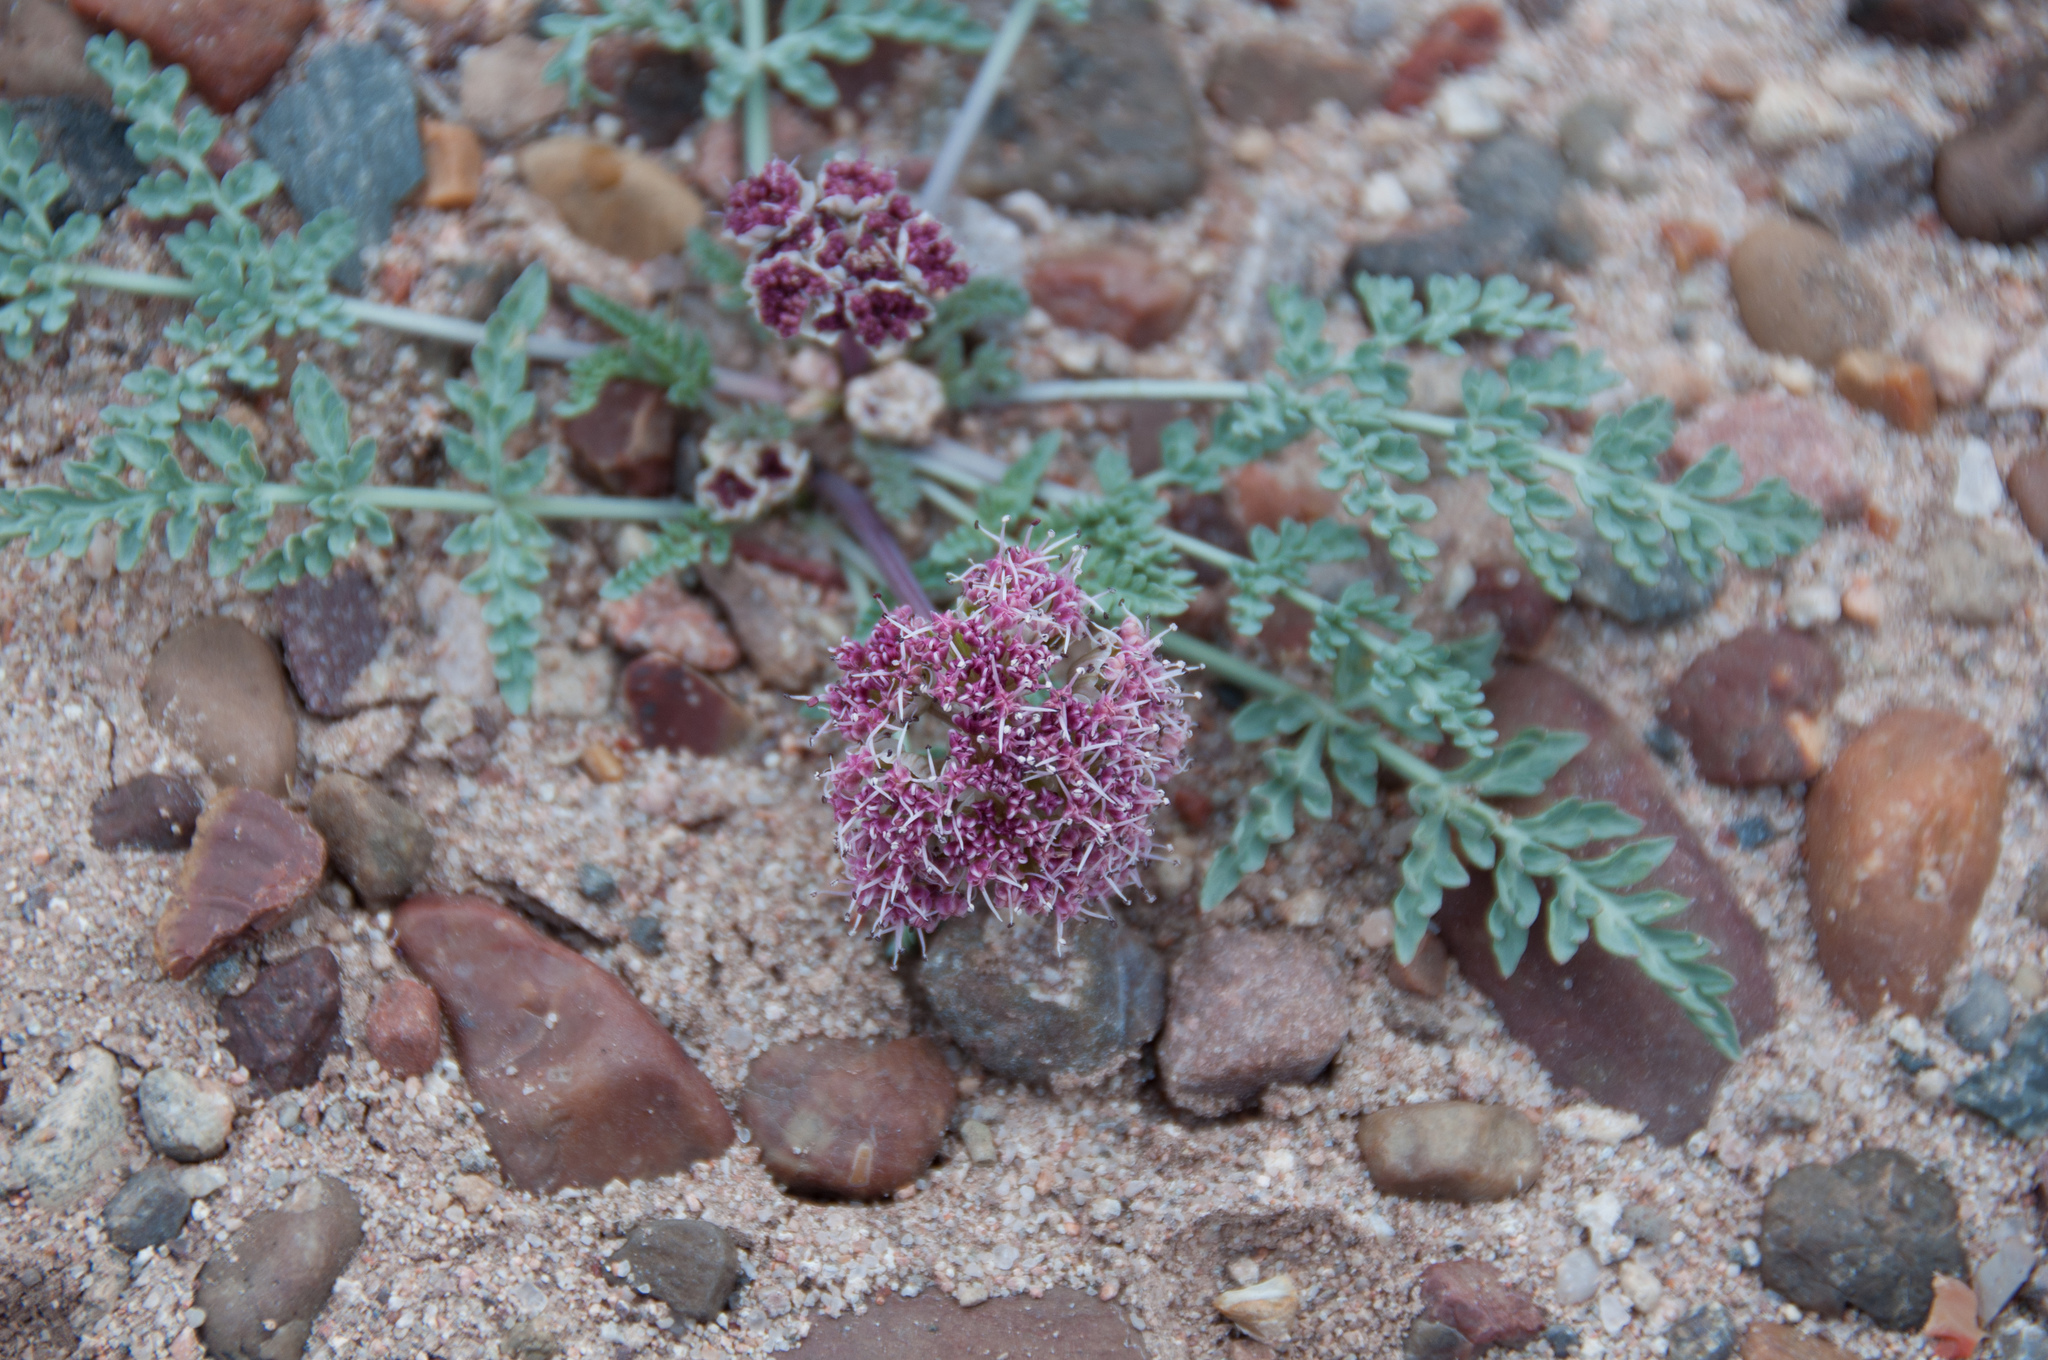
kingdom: Plantae
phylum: Tracheophyta
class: Magnoliopsida
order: Apiales
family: Apiaceae
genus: Vesper
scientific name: Vesper bulbosus
